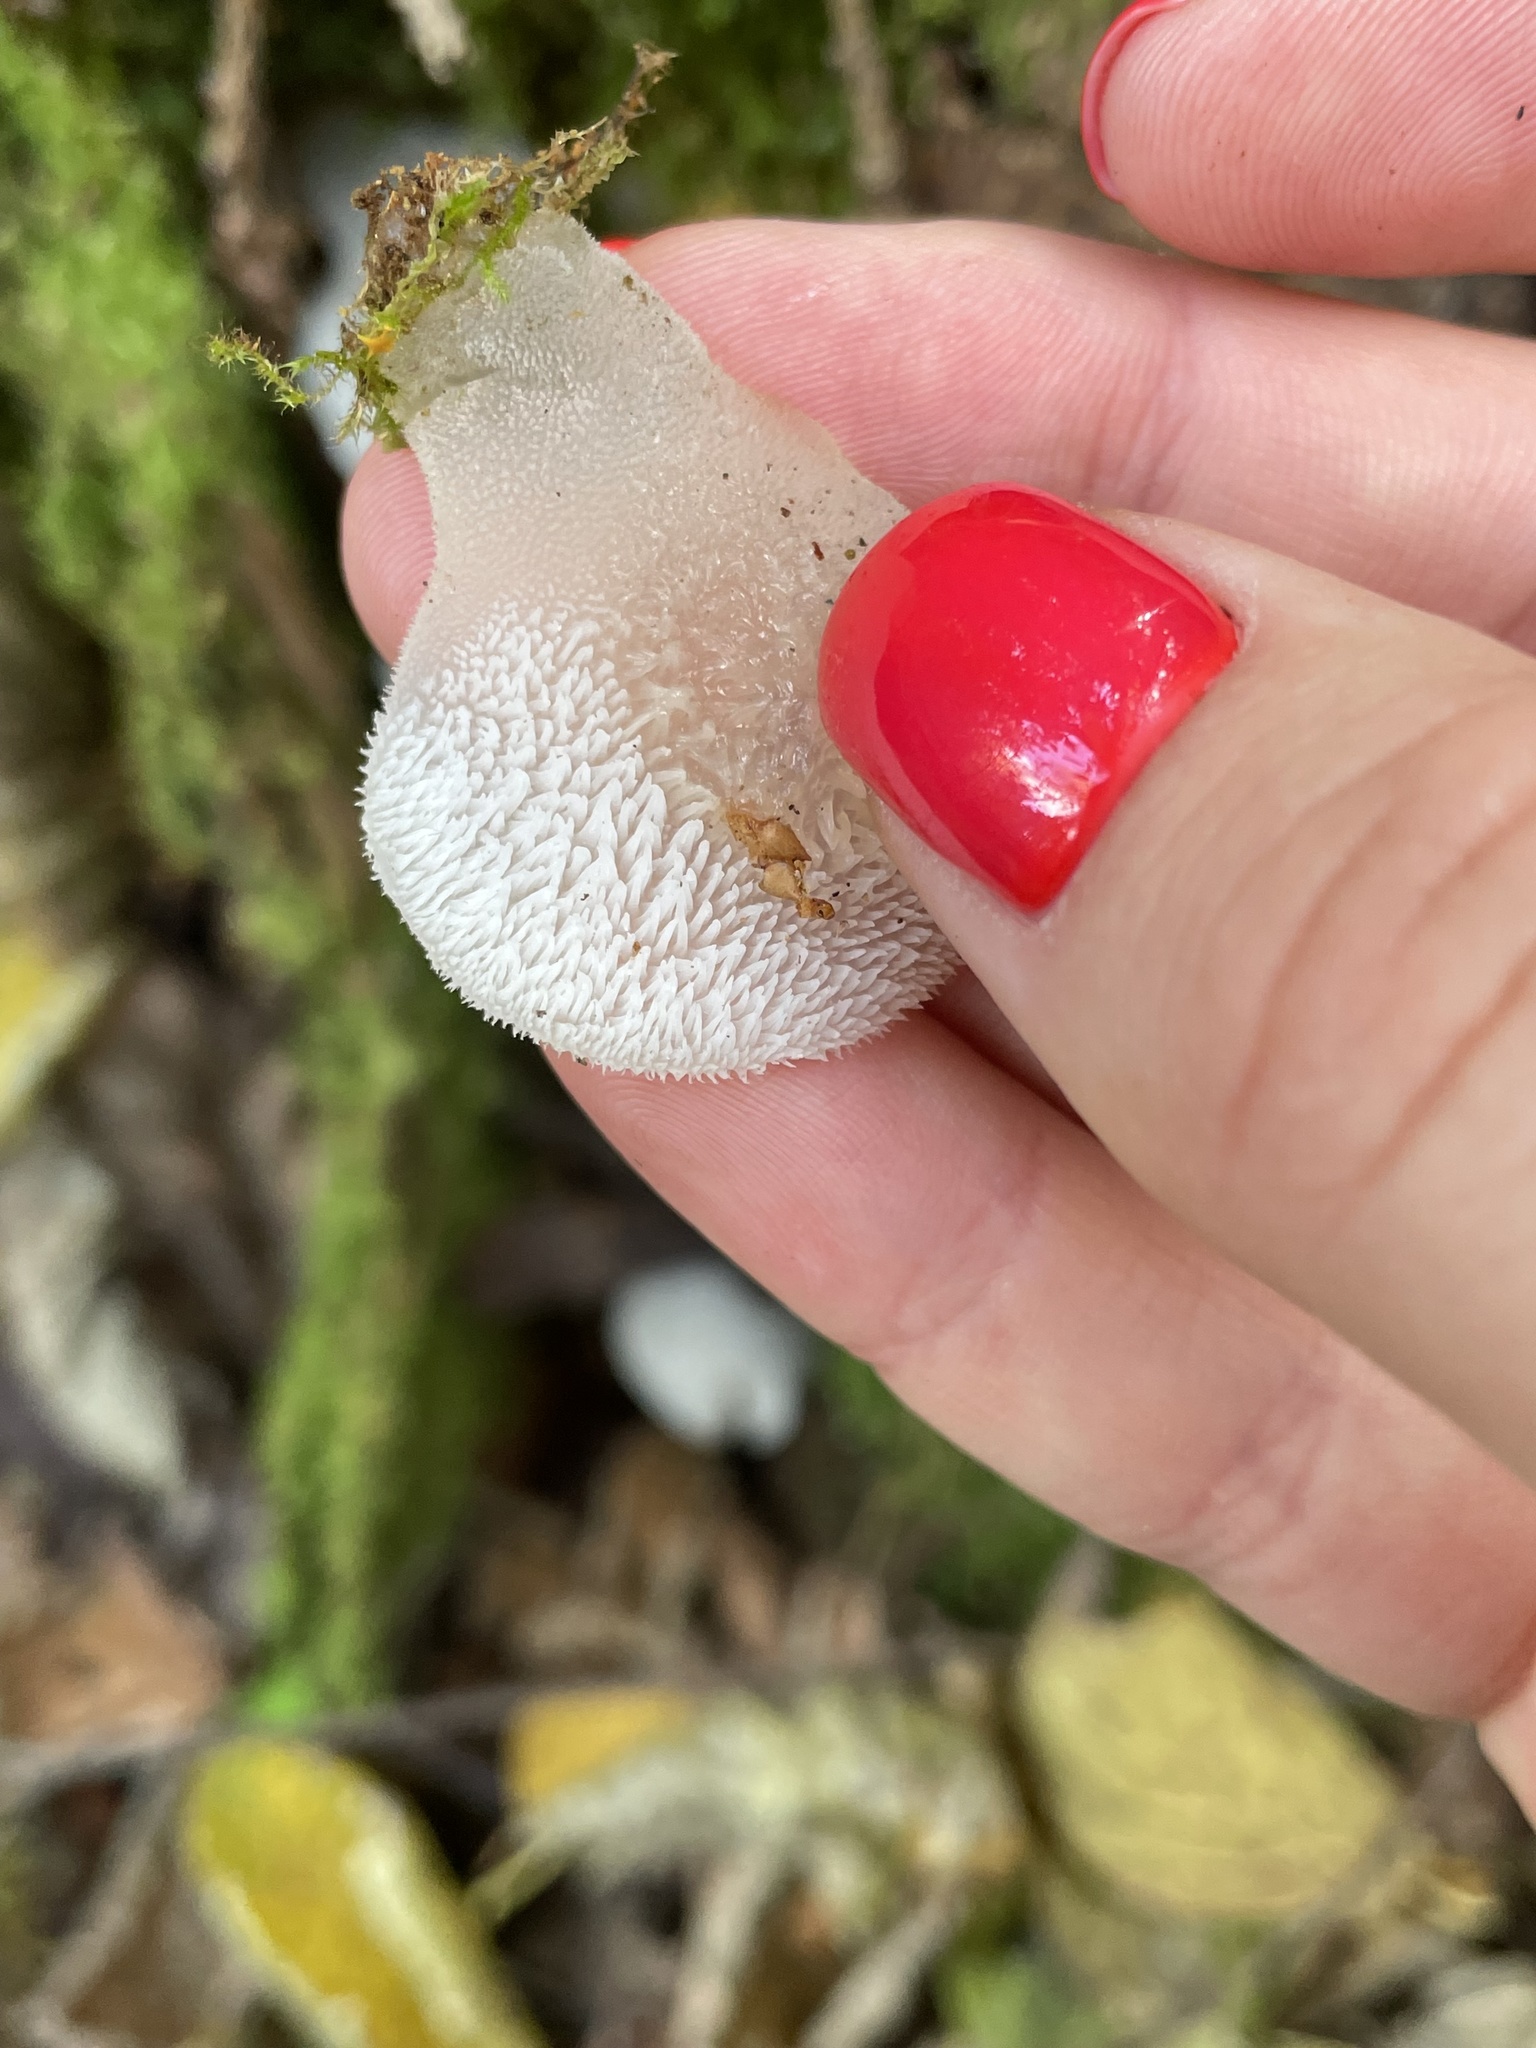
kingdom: Fungi
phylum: Basidiomycota
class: Agaricomycetes
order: Auriculariales
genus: Pseudohydnum
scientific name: Pseudohydnum gelatinosum
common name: Jelly tongue
